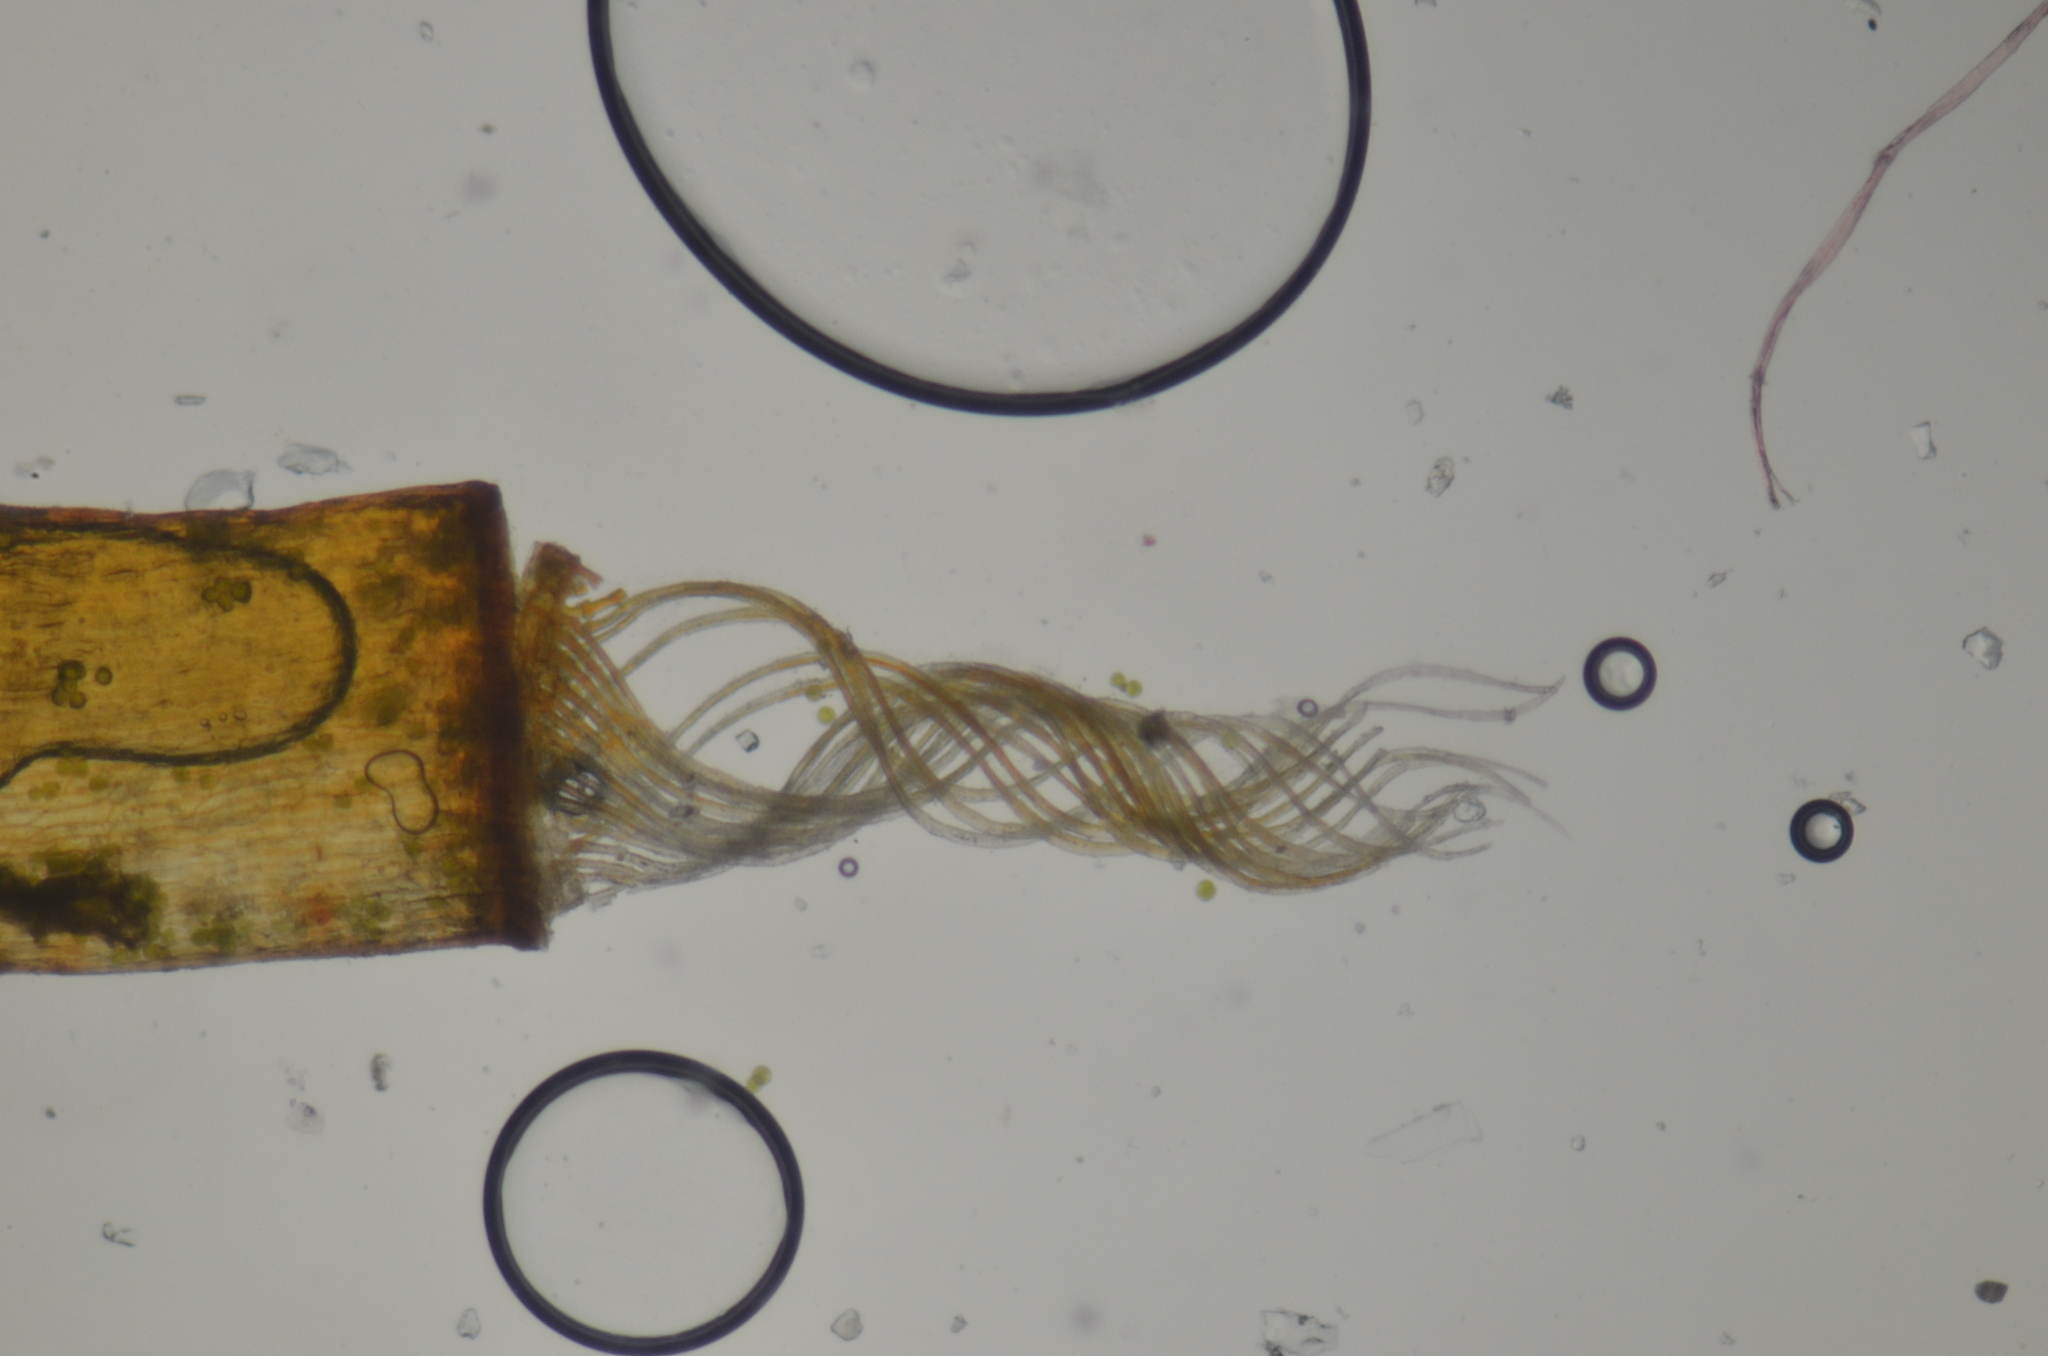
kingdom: Plantae
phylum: Bryophyta
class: Bryopsida
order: Pottiales
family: Pottiaceae
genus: Tortula
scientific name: Tortula bolanderi
